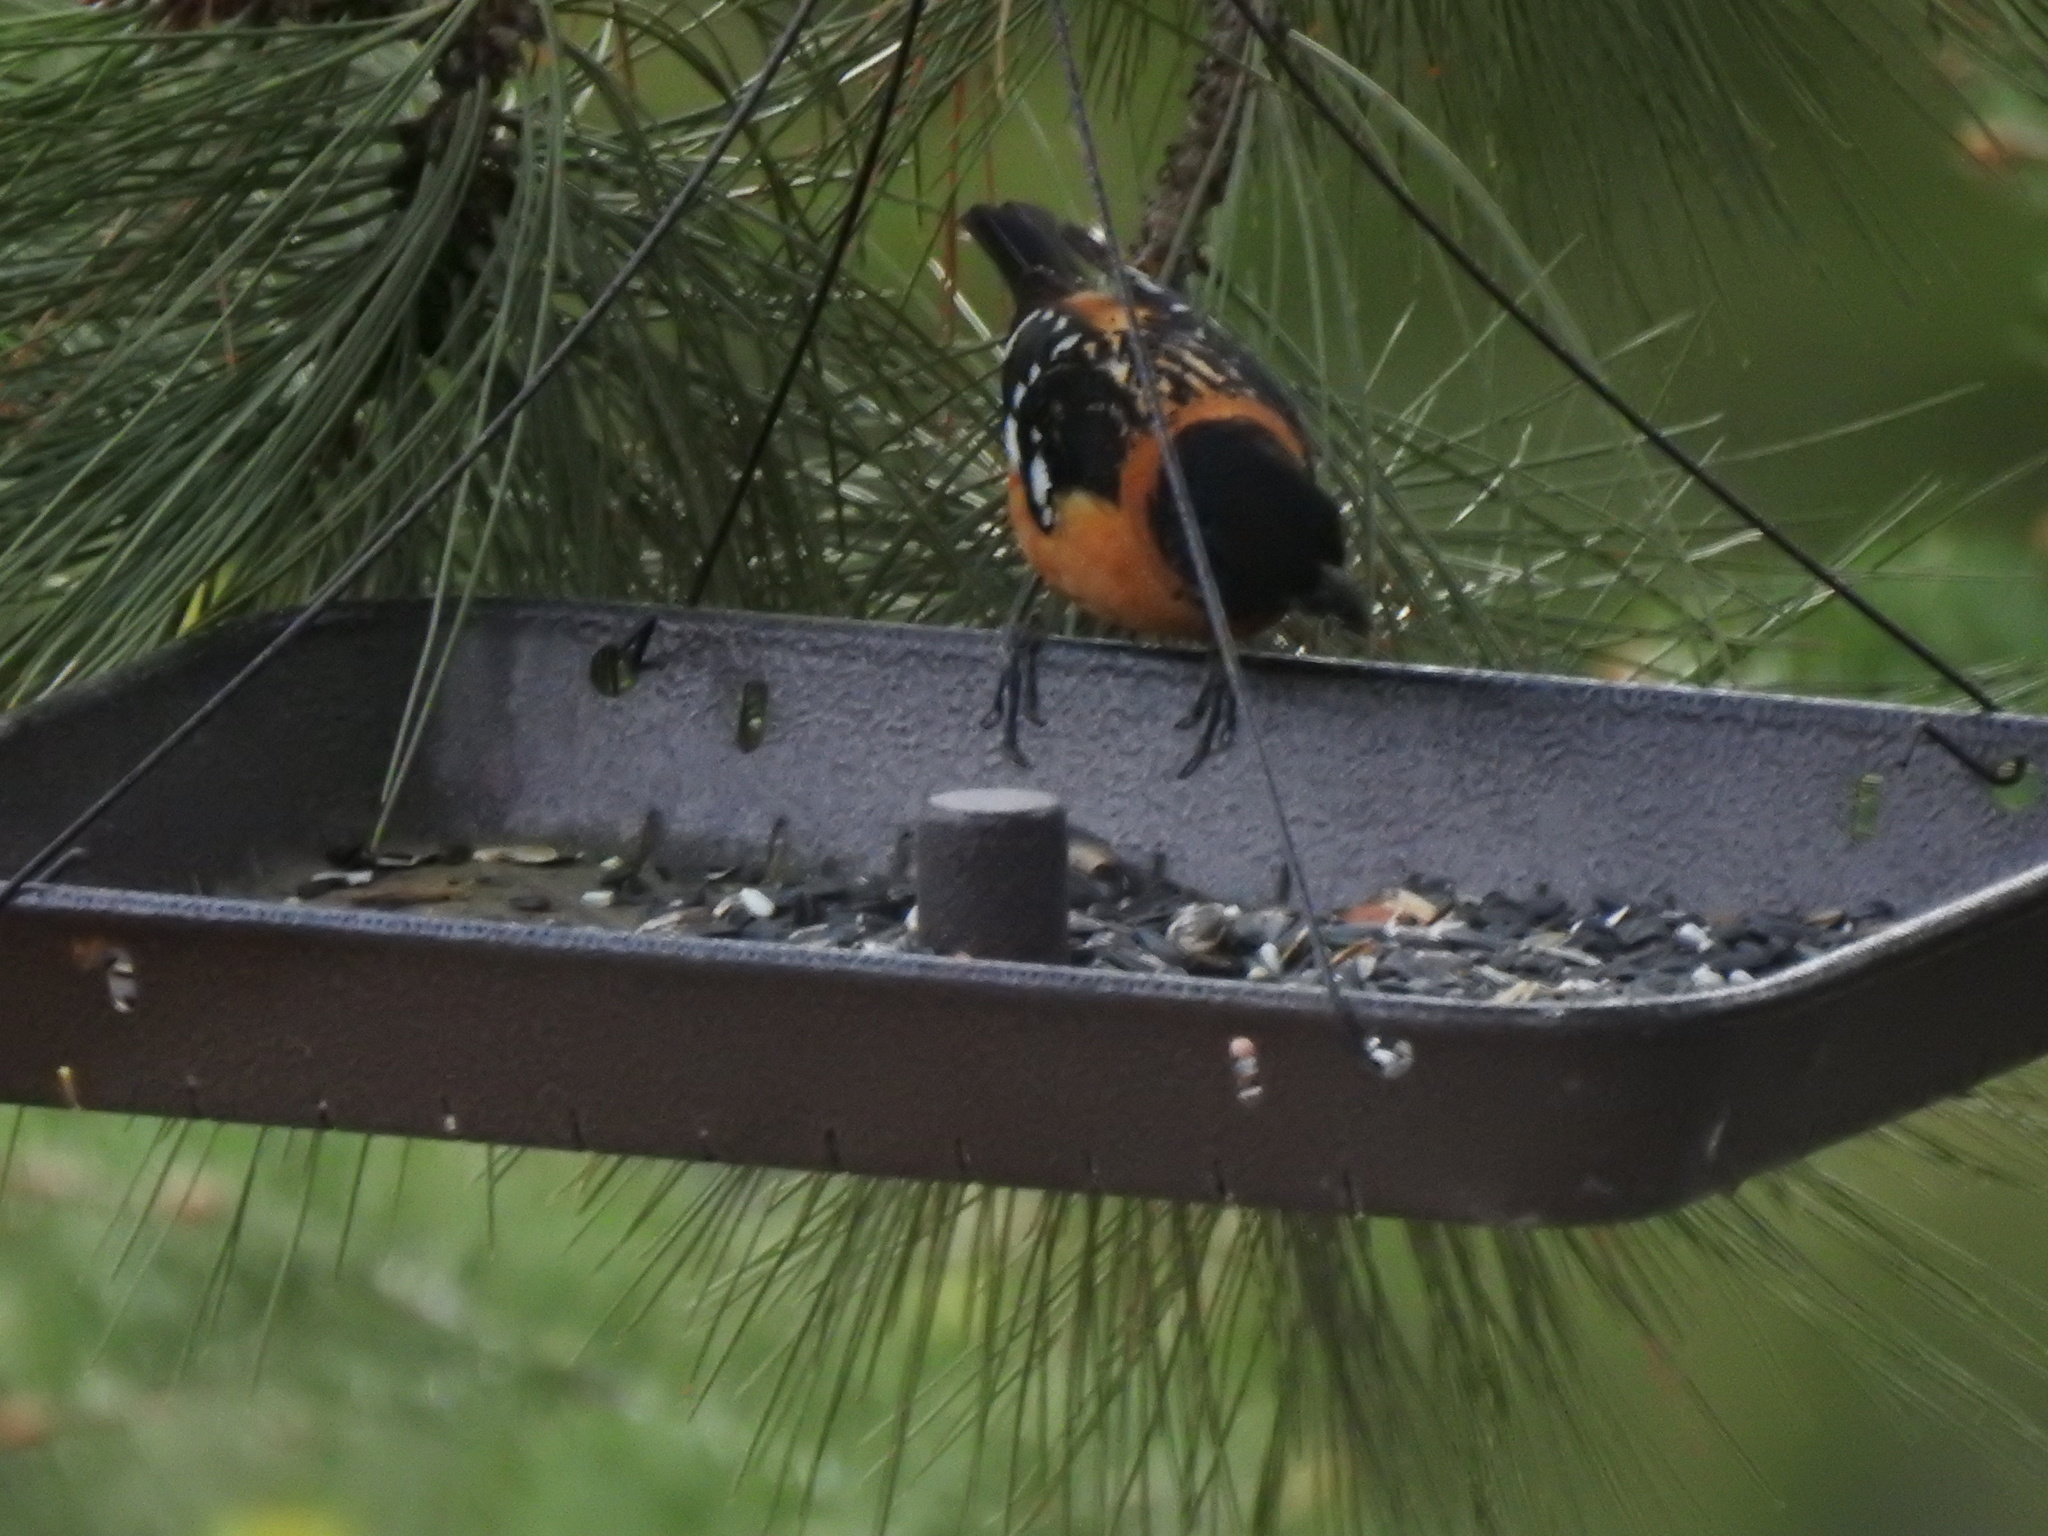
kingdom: Animalia
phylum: Chordata
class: Aves
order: Passeriformes
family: Cardinalidae
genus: Pheucticus
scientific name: Pheucticus melanocephalus
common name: Black-headed grosbeak
